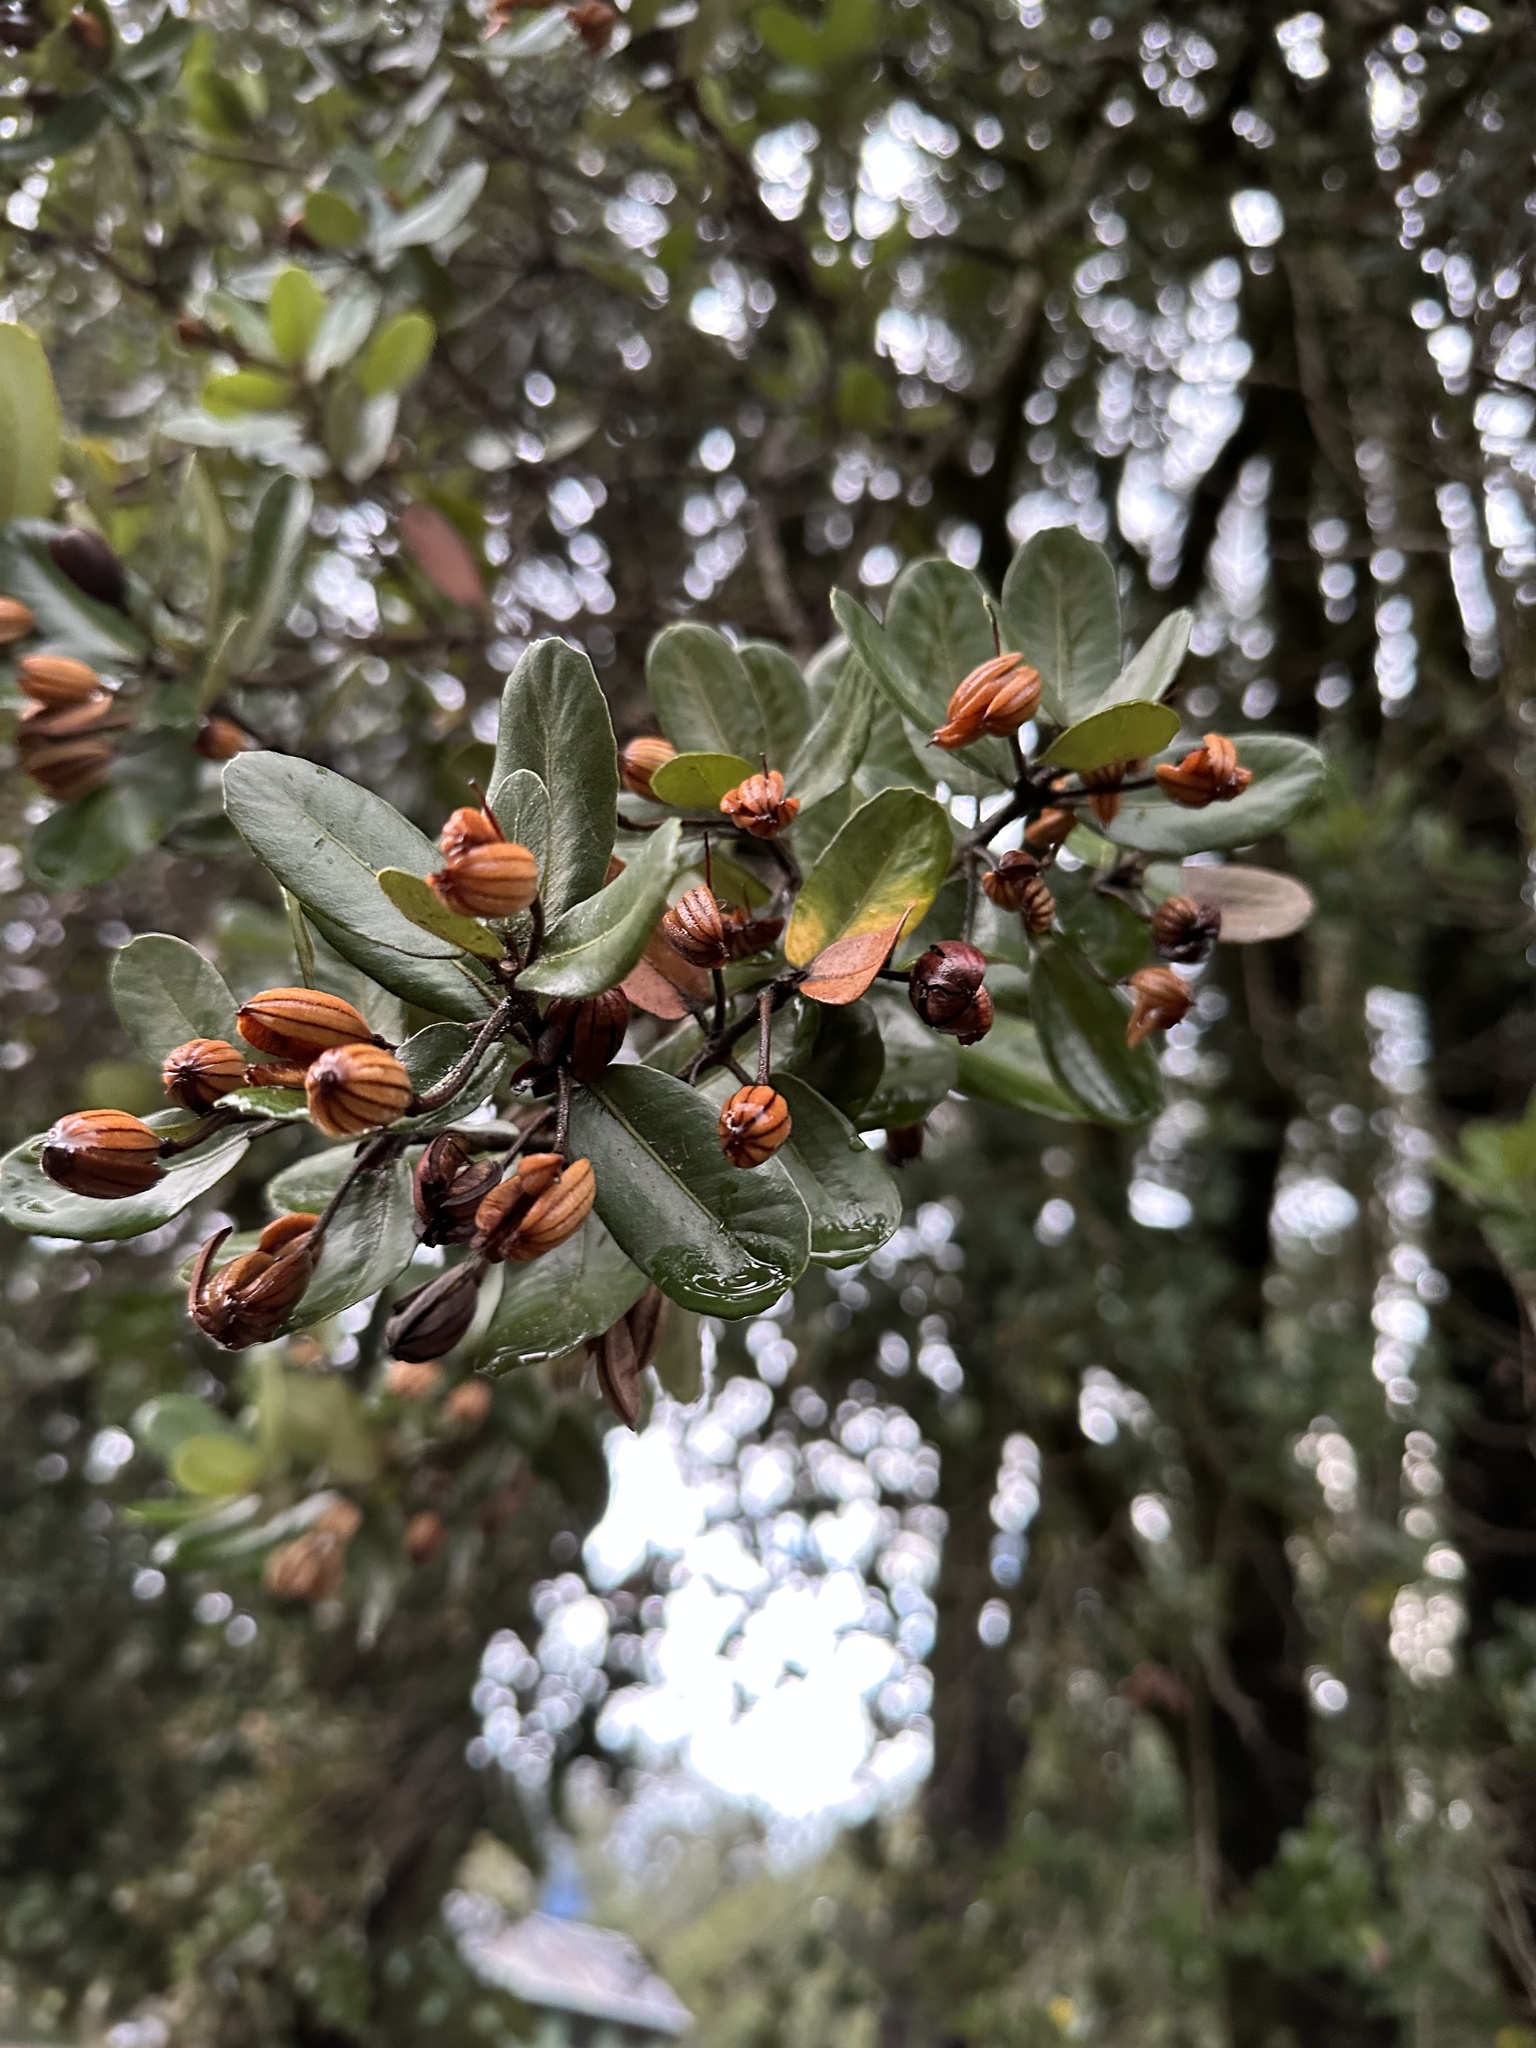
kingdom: Plantae
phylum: Tracheophyta
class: Magnoliopsida
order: Oxalidales
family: Cunoniaceae
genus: Eucryphia
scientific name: Eucryphia cordifolia
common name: Ulmo
